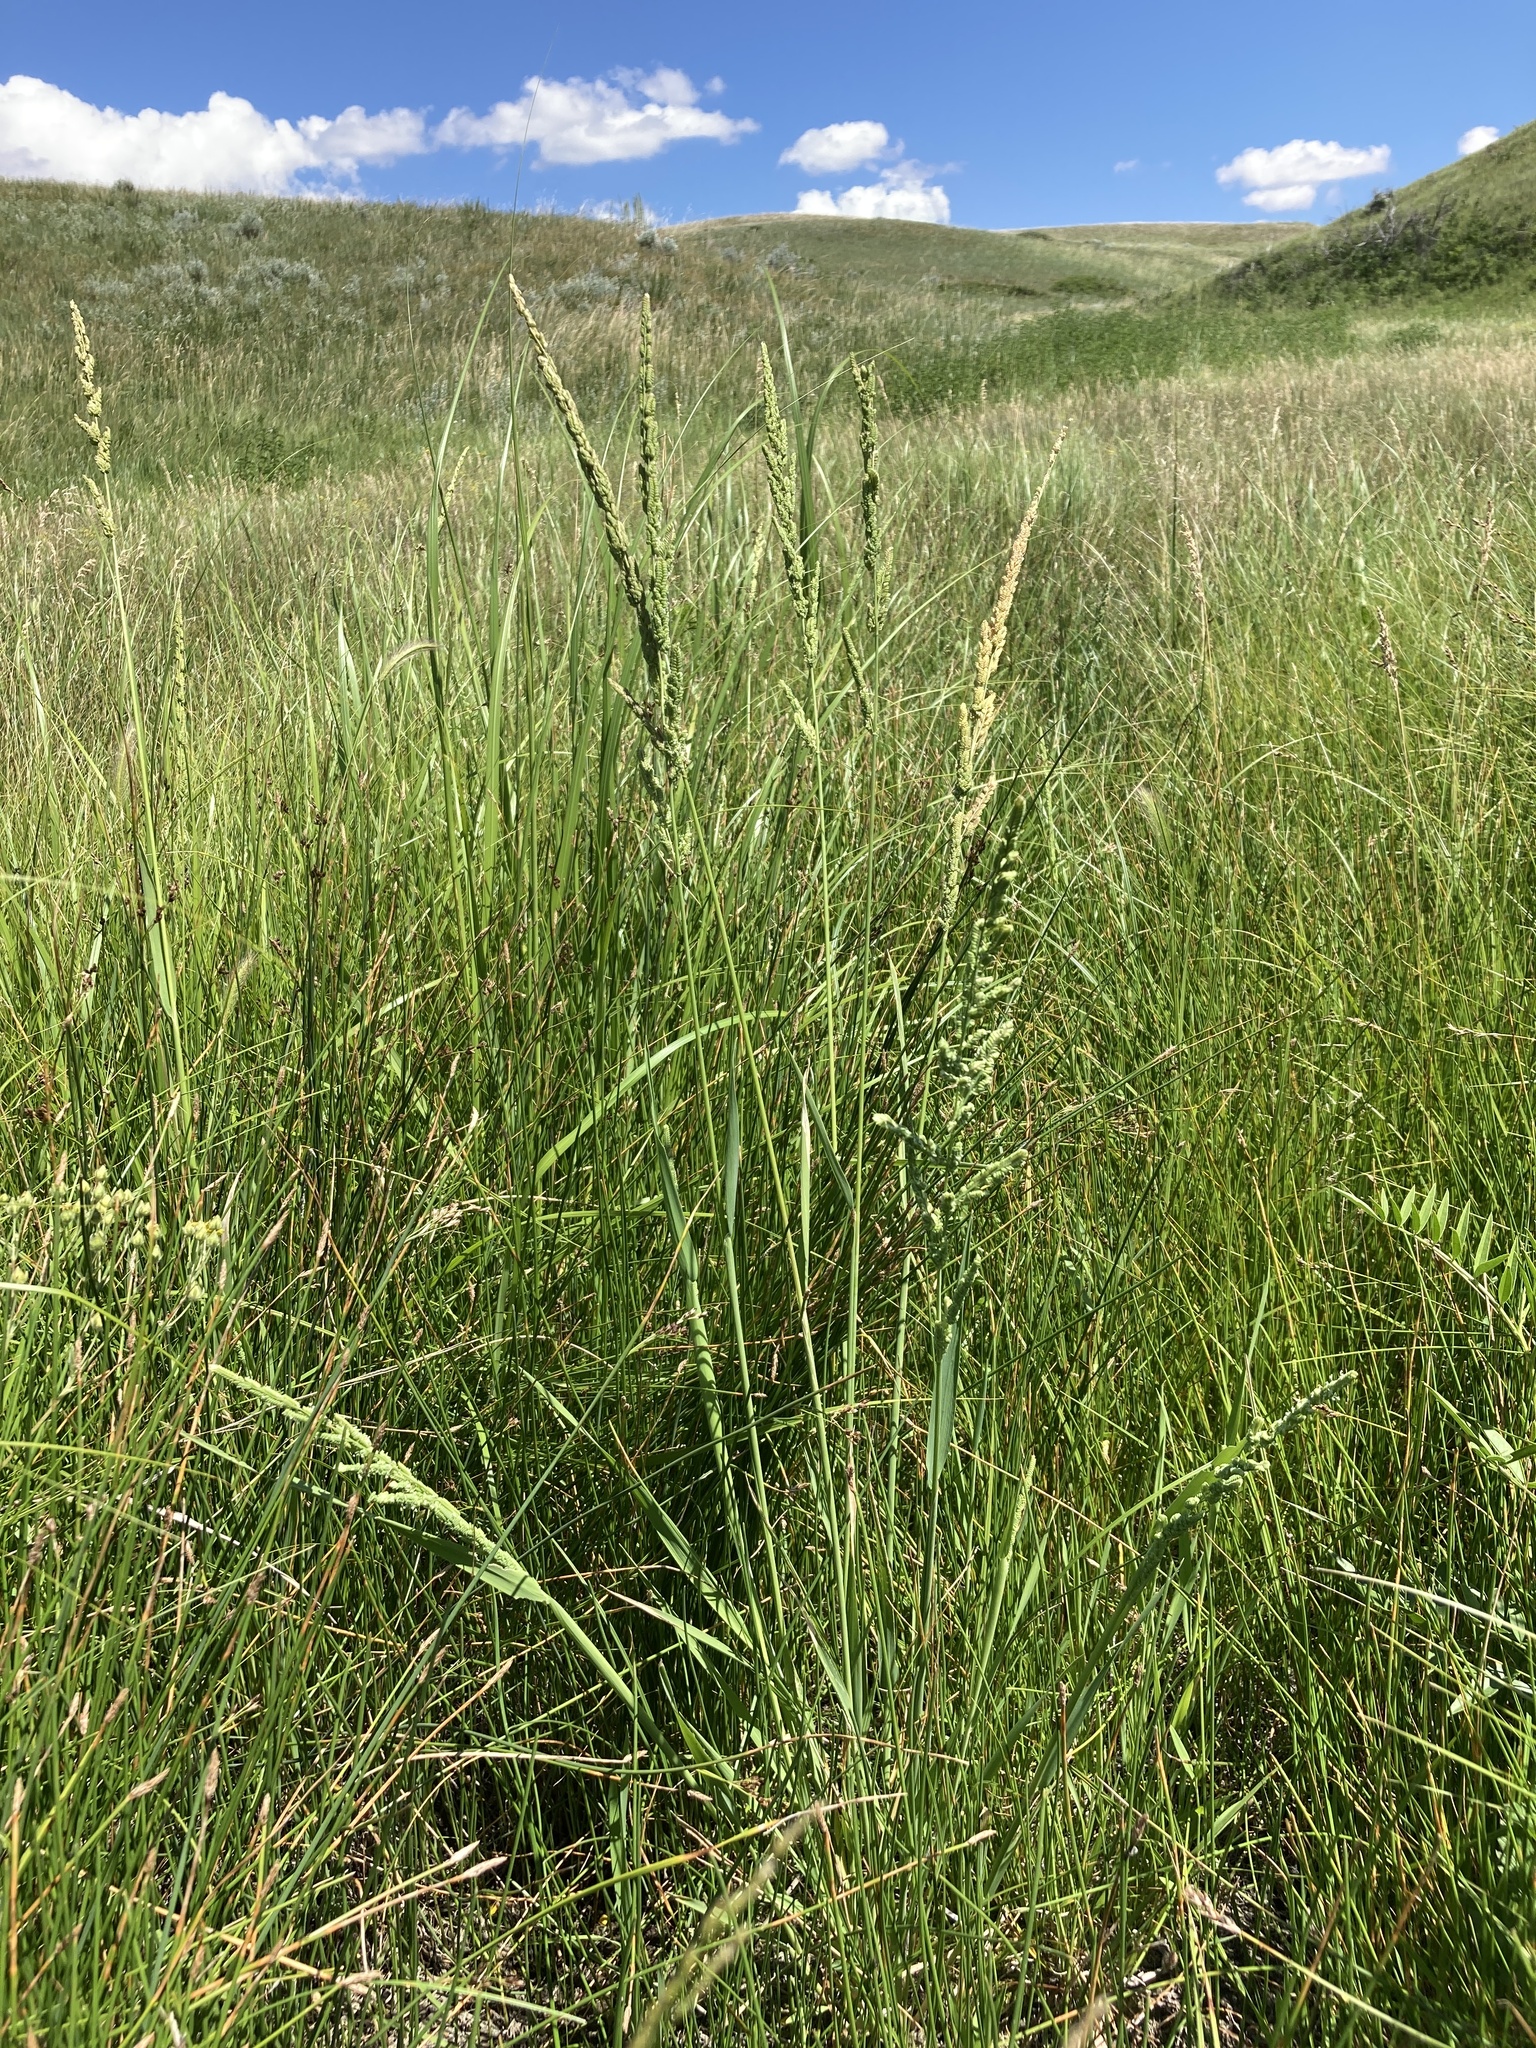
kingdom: Plantae
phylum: Tracheophyta
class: Liliopsida
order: Poales
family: Poaceae
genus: Beckmannia
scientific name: Beckmannia syzigachne
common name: American slough-grass
